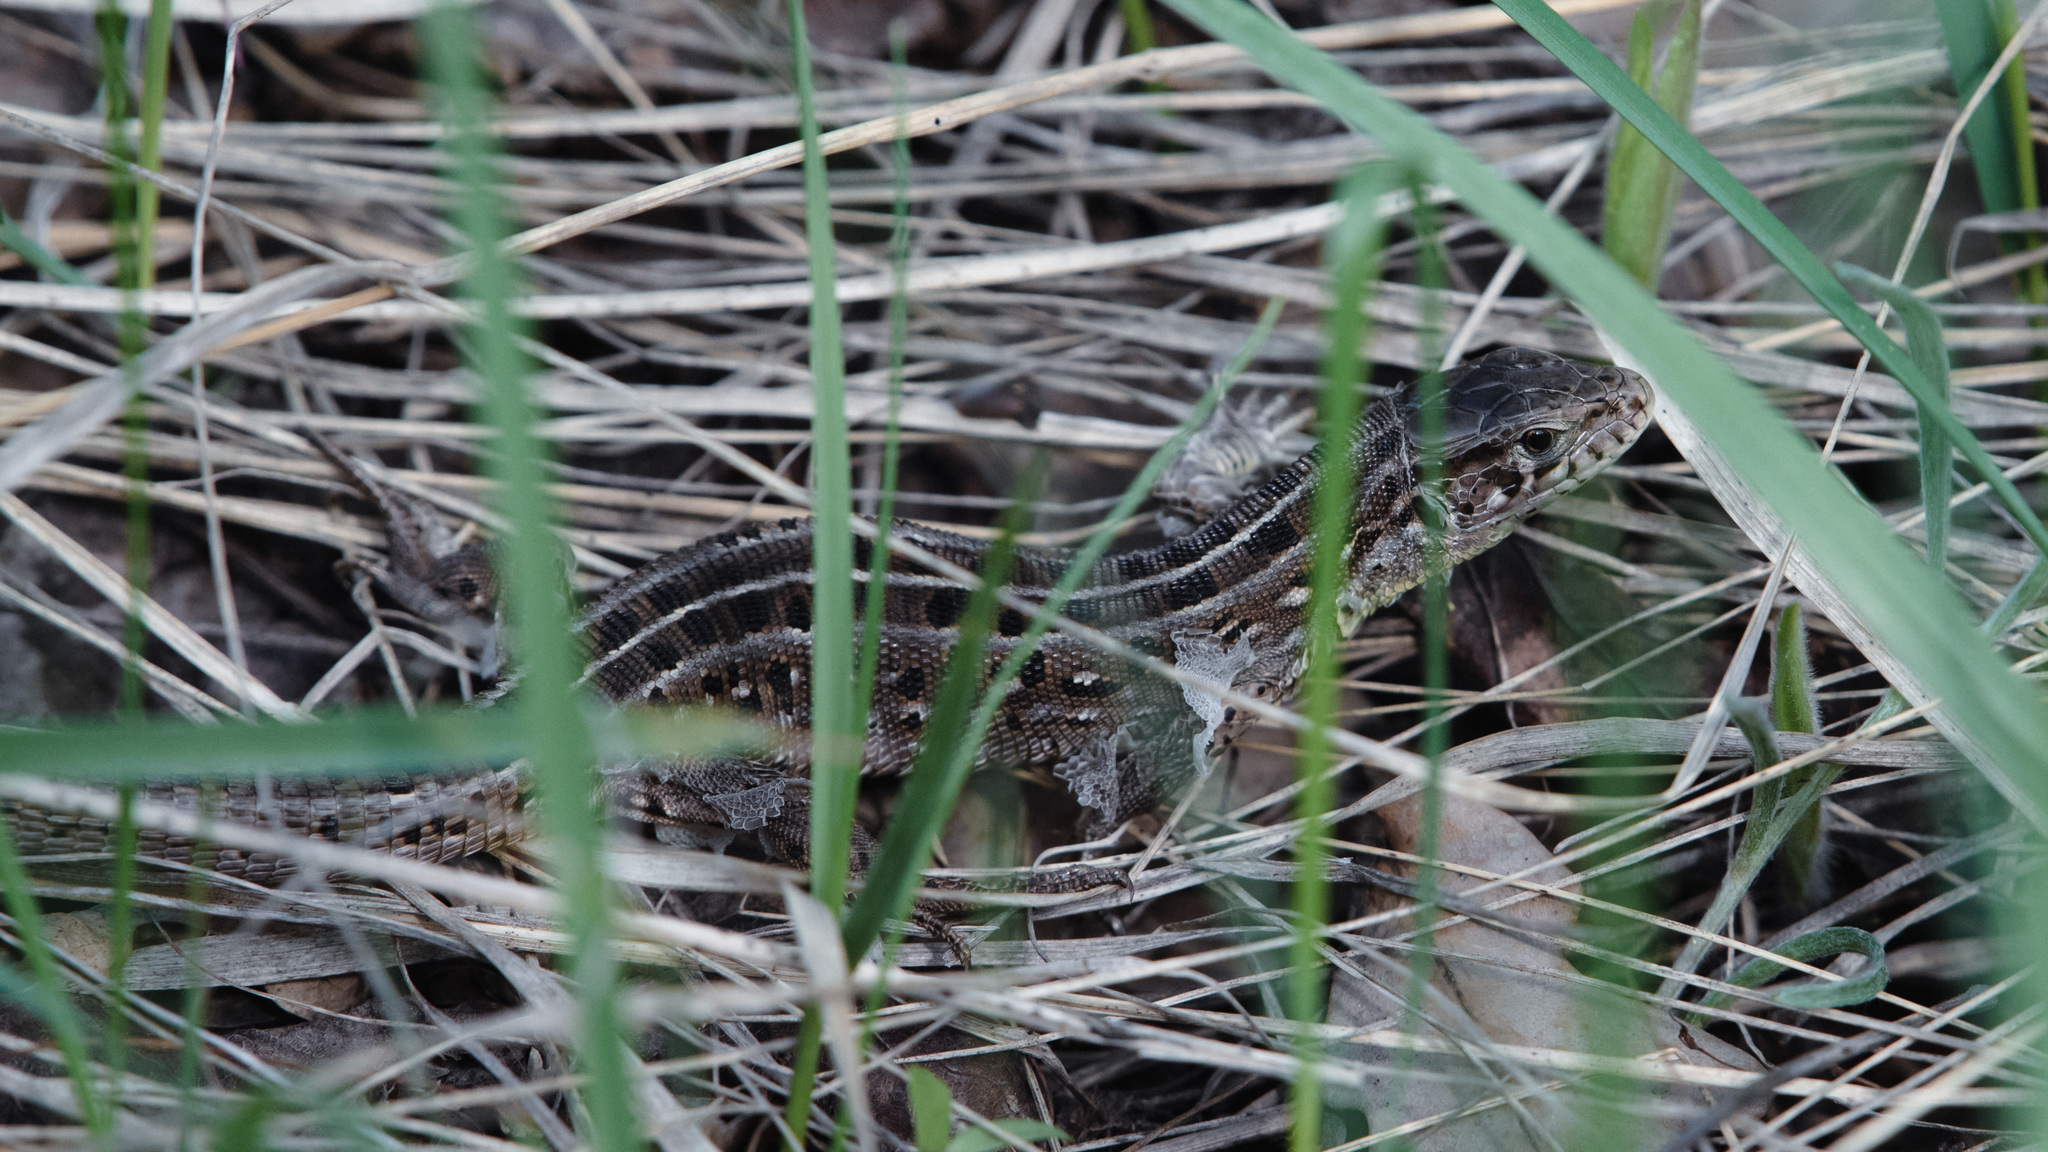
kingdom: Animalia
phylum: Chordata
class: Squamata
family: Lacertidae
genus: Lacerta
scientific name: Lacerta agilis
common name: Sand lizard
